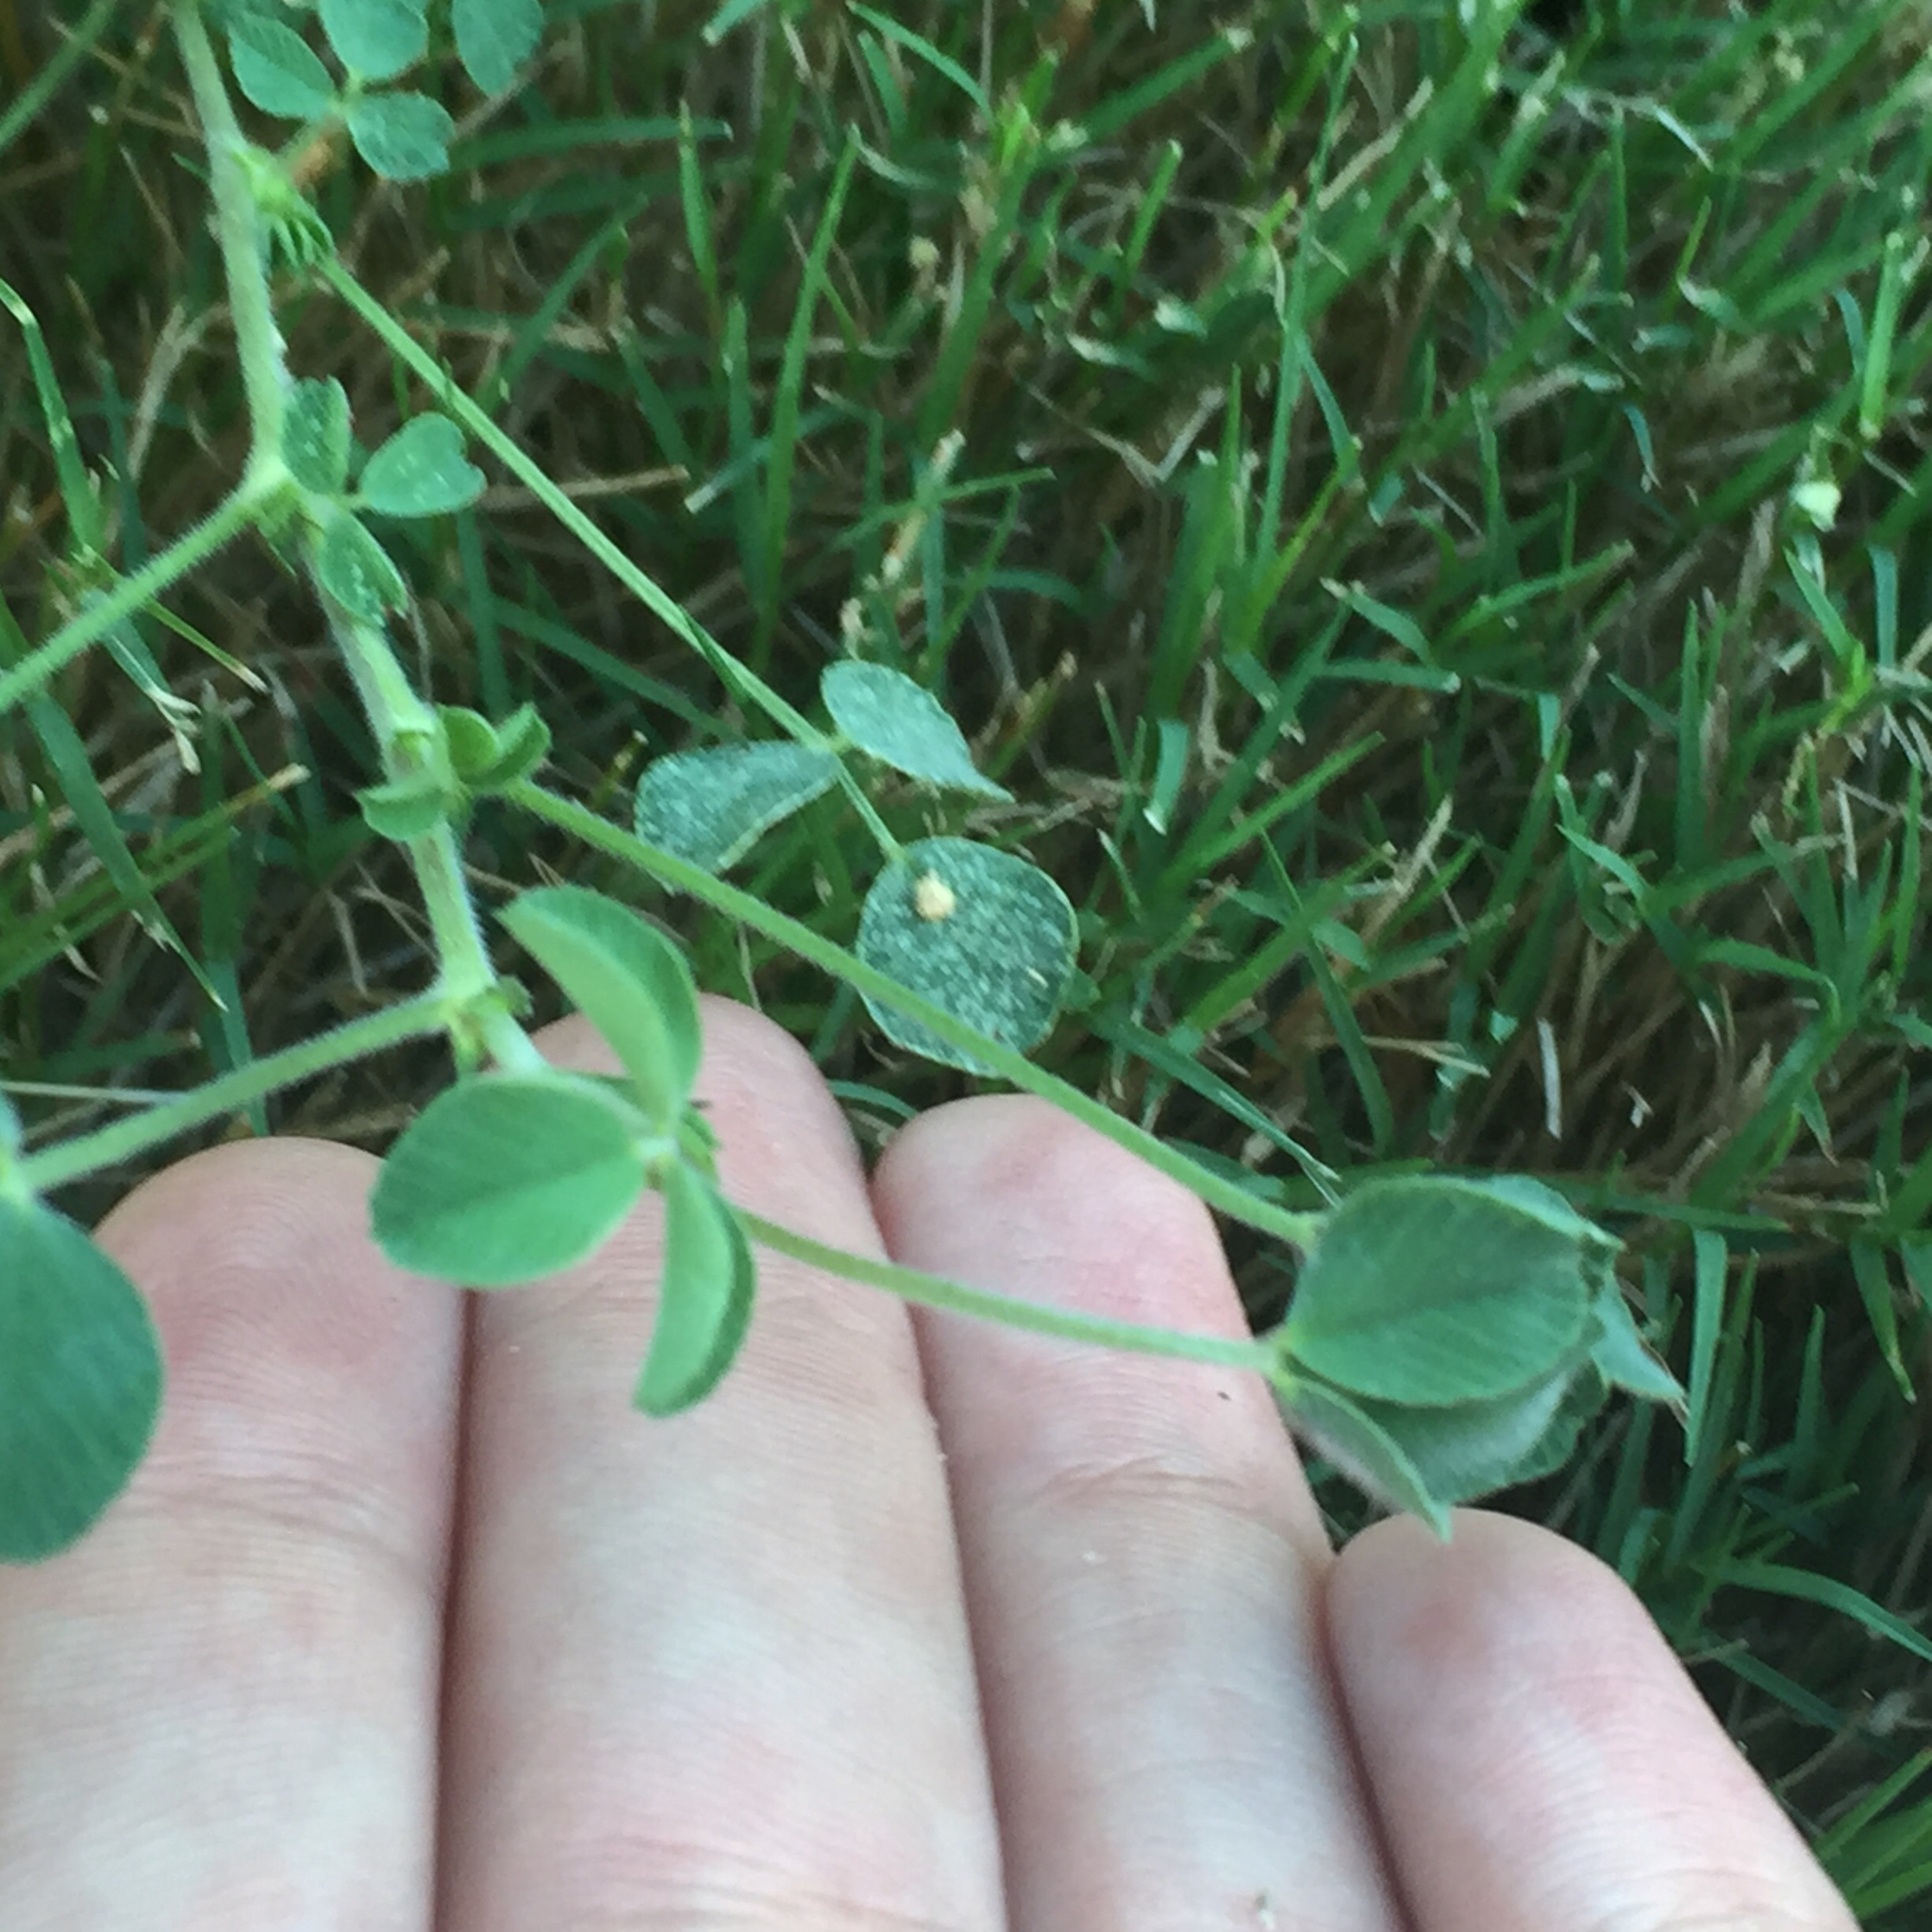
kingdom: Plantae
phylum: Tracheophyta
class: Magnoliopsida
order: Fabales
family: Fabaceae
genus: Medicago
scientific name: Medicago minima
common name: Little bur-clover
